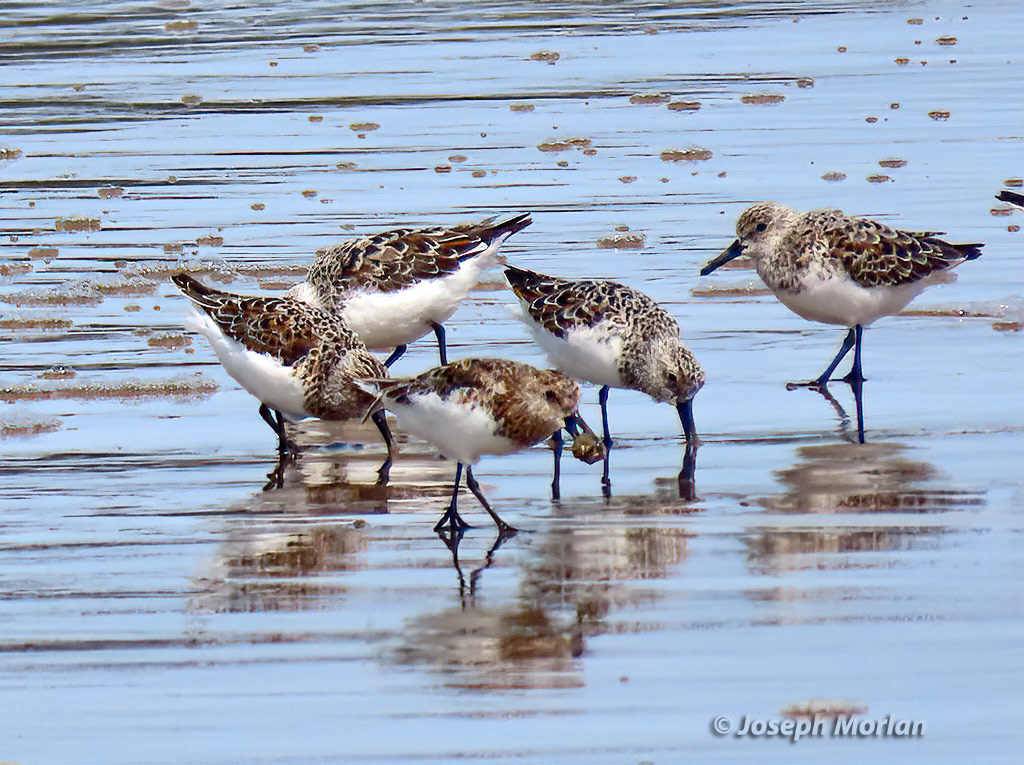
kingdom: Animalia
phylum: Chordata
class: Aves
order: Charadriiformes
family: Scolopacidae
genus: Calidris
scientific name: Calidris alba
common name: Sanderling
